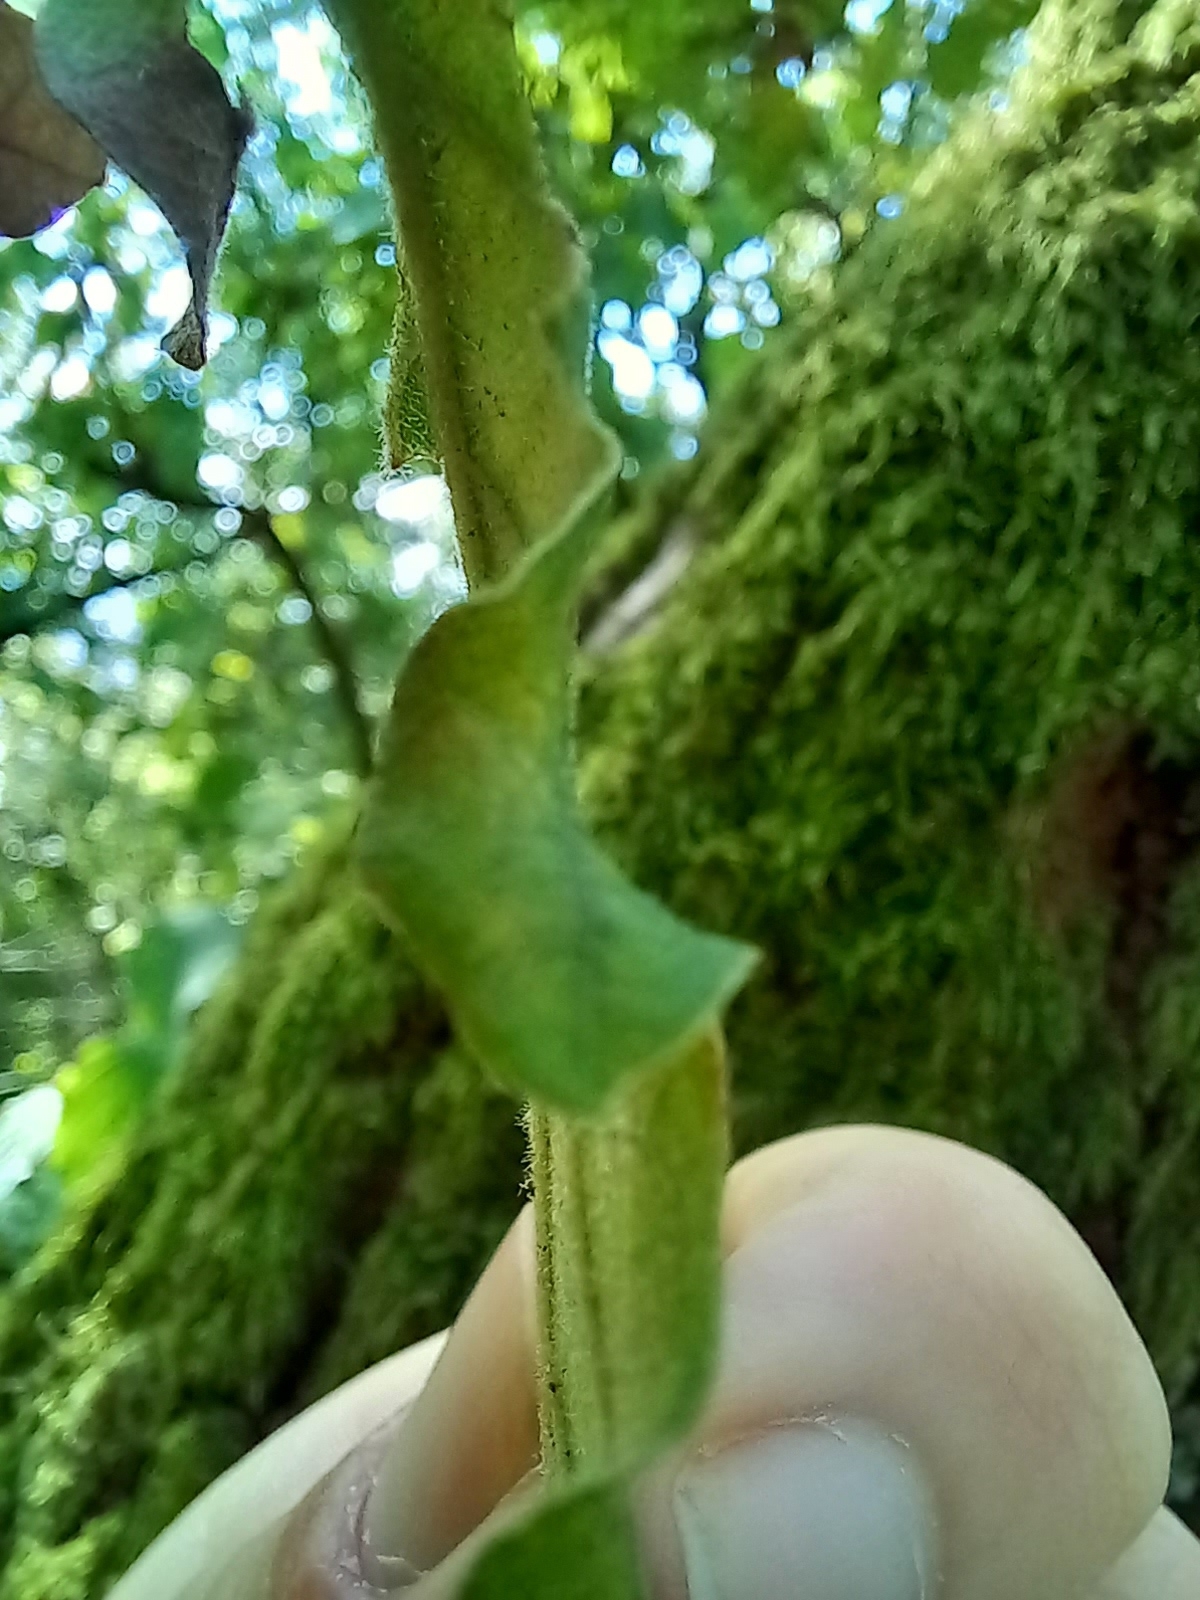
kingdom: Plantae
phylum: Tracheophyta
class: Magnoliopsida
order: Fagales
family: Fagaceae
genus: Quercus
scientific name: Quercus pubescens
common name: Downy oak
